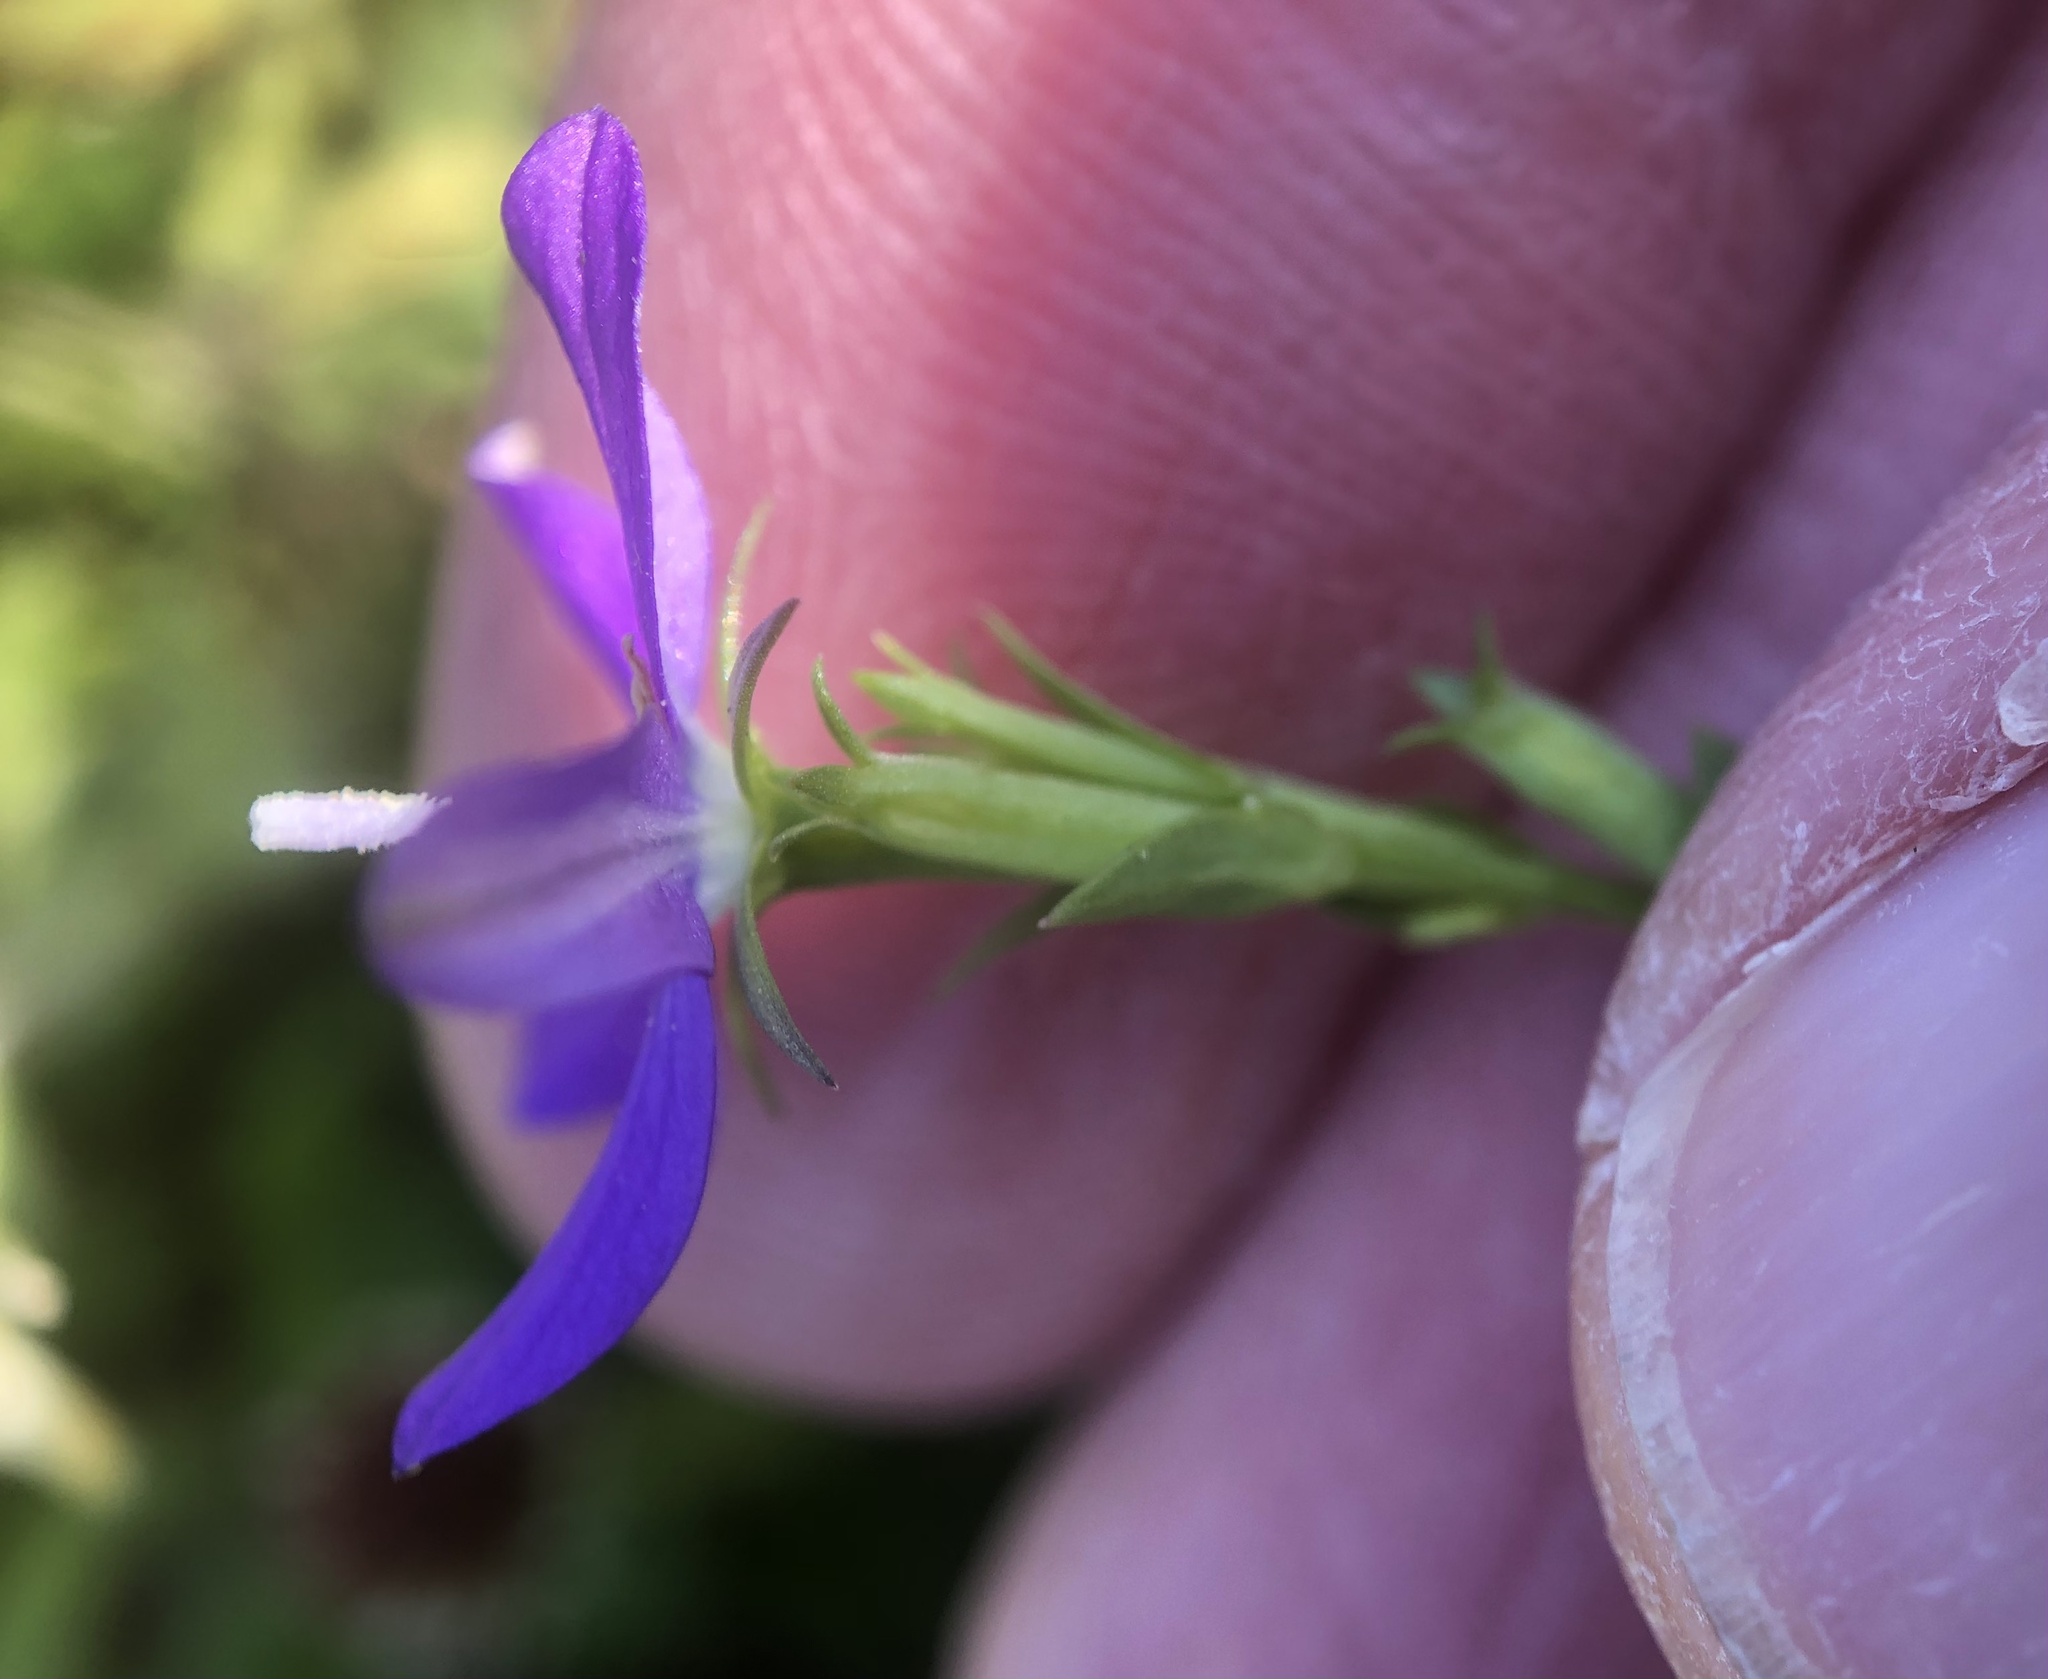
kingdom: Plantae
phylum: Tracheophyta
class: Magnoliopsida
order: Asterales
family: Campanulaceae
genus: Triodanis
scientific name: Triodanis biflora
